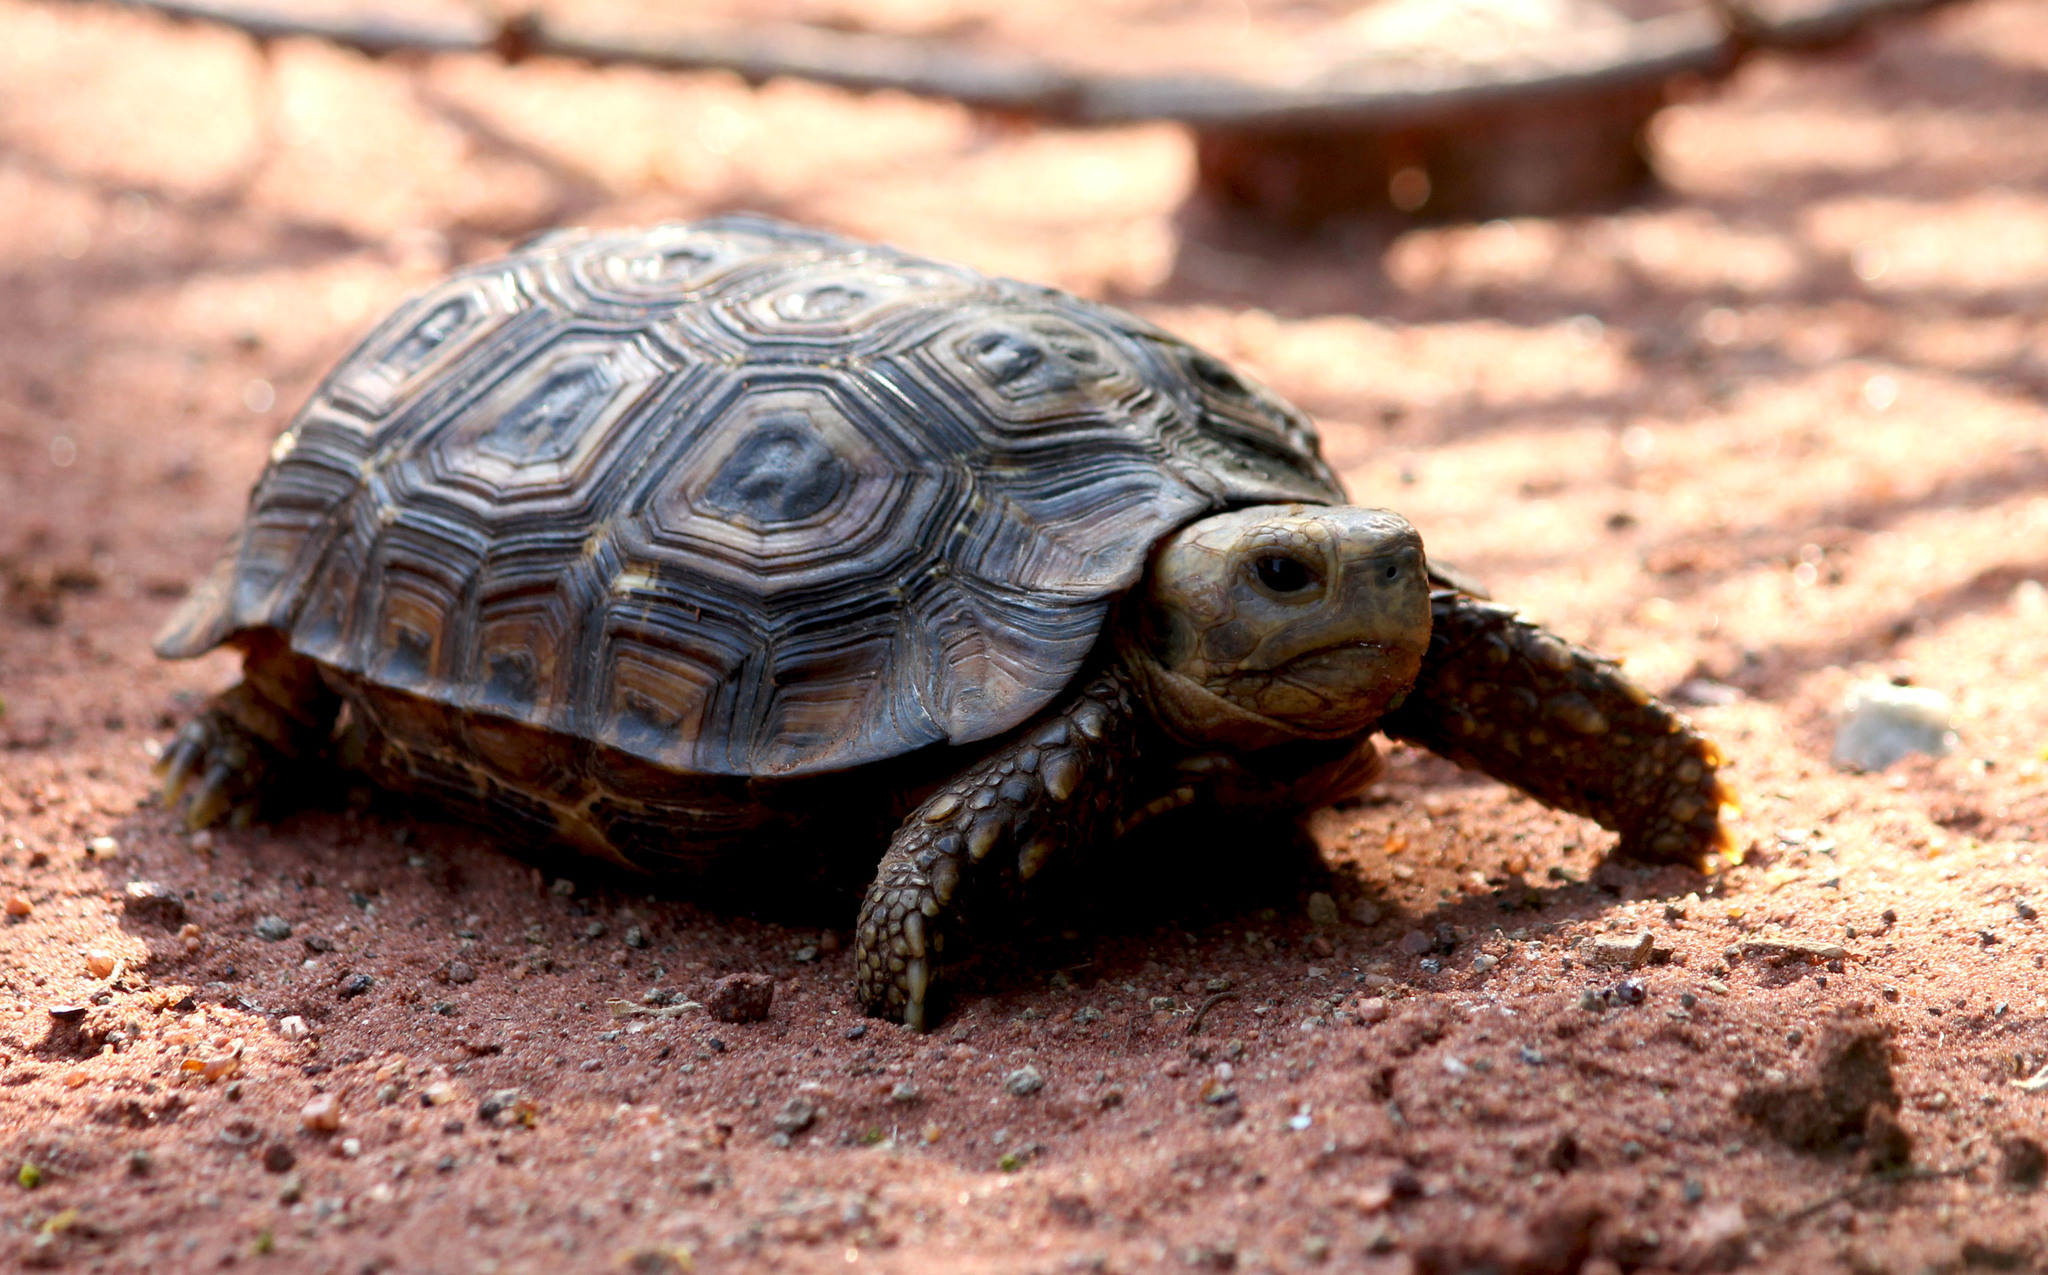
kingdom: Animalia
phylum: Chordata
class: Testudines
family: Testudinidae
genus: Kinixys
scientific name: Kinixys spekii
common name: Speke's hingeback tortoise
